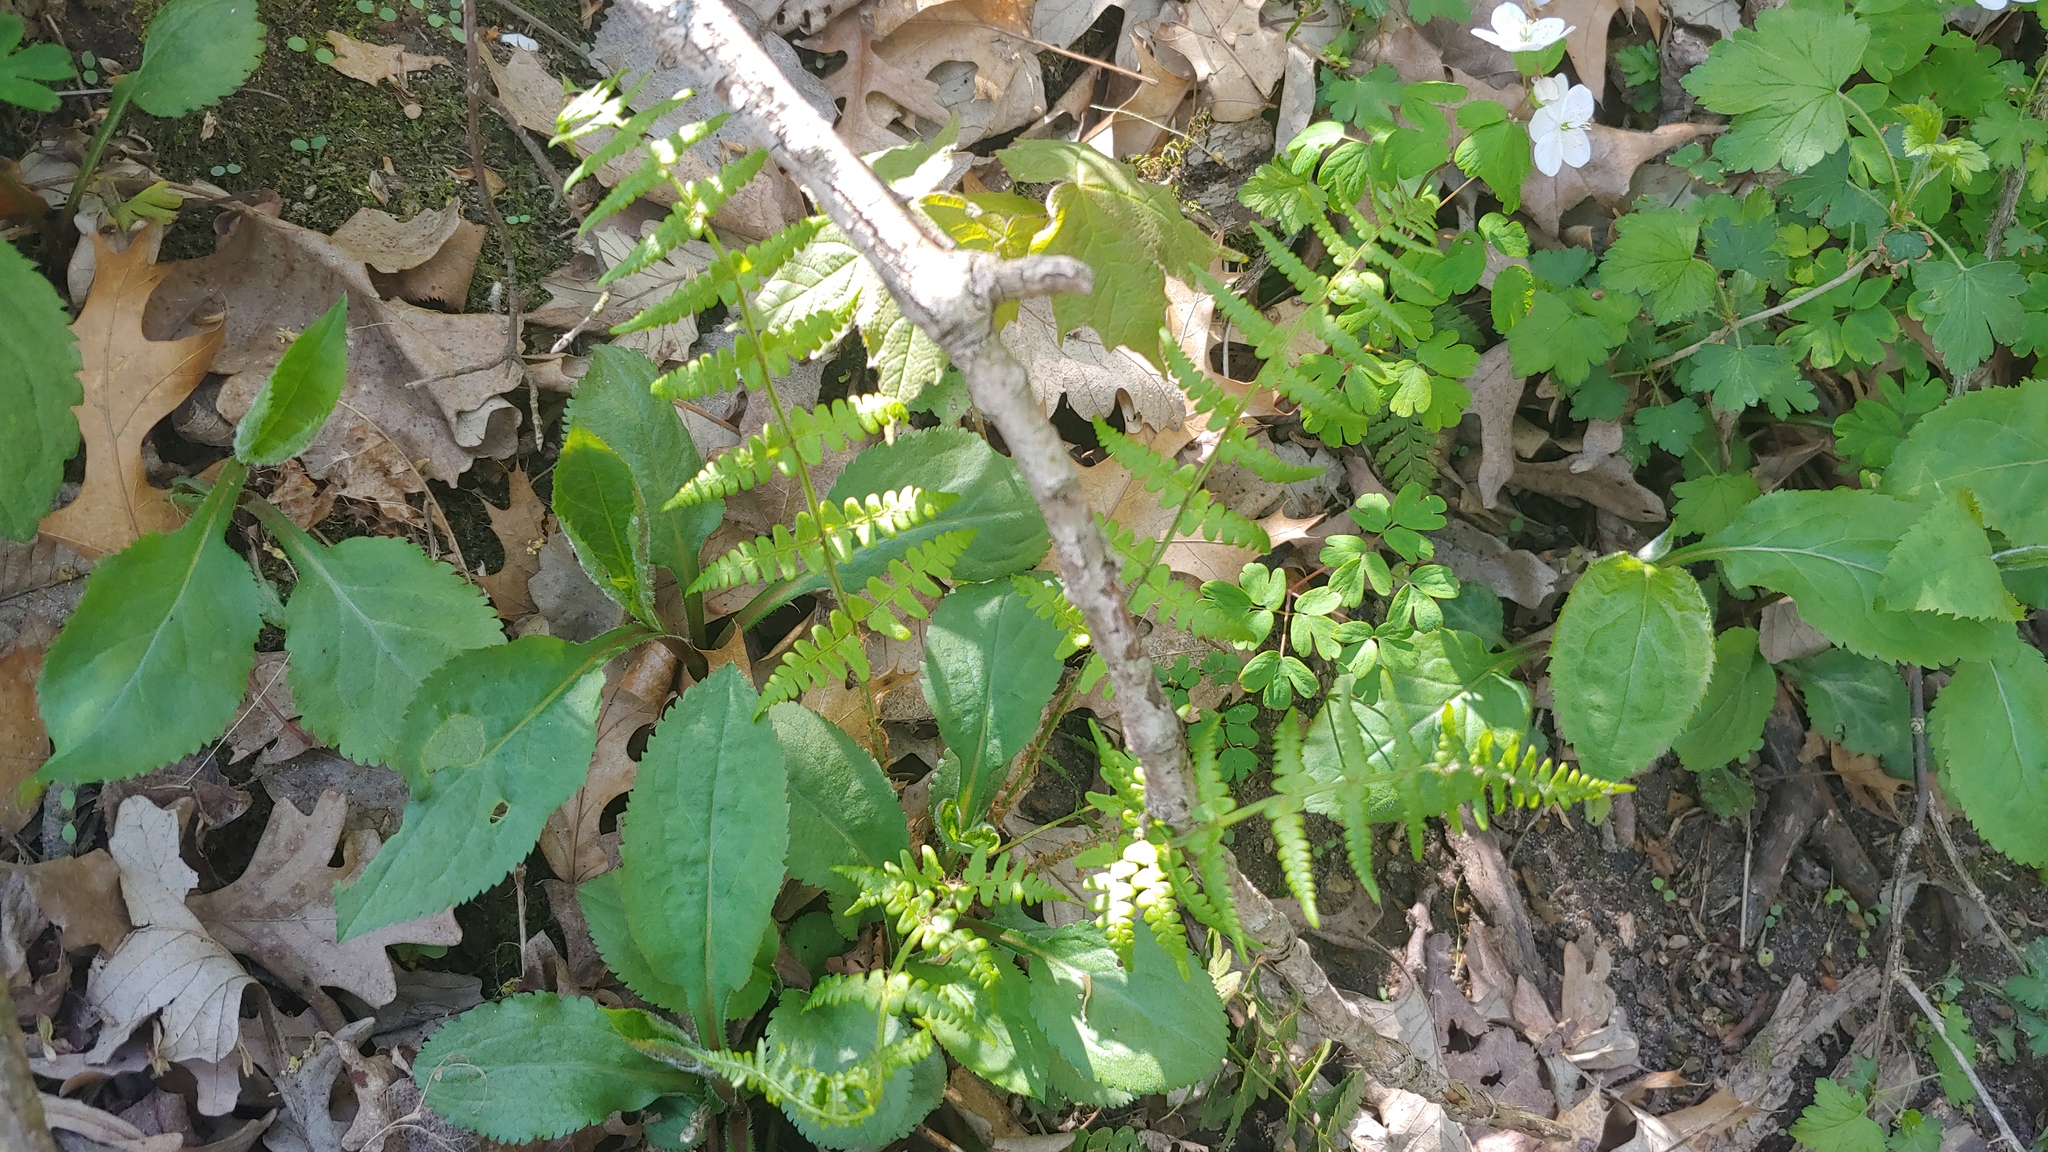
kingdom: Plantae
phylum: Tracheophyta
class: Polypodiopsida
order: Polypodiales
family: Dryopteridaceae
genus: Dryopteris
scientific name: Dryopteris marginalis
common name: Marginal wood fern
